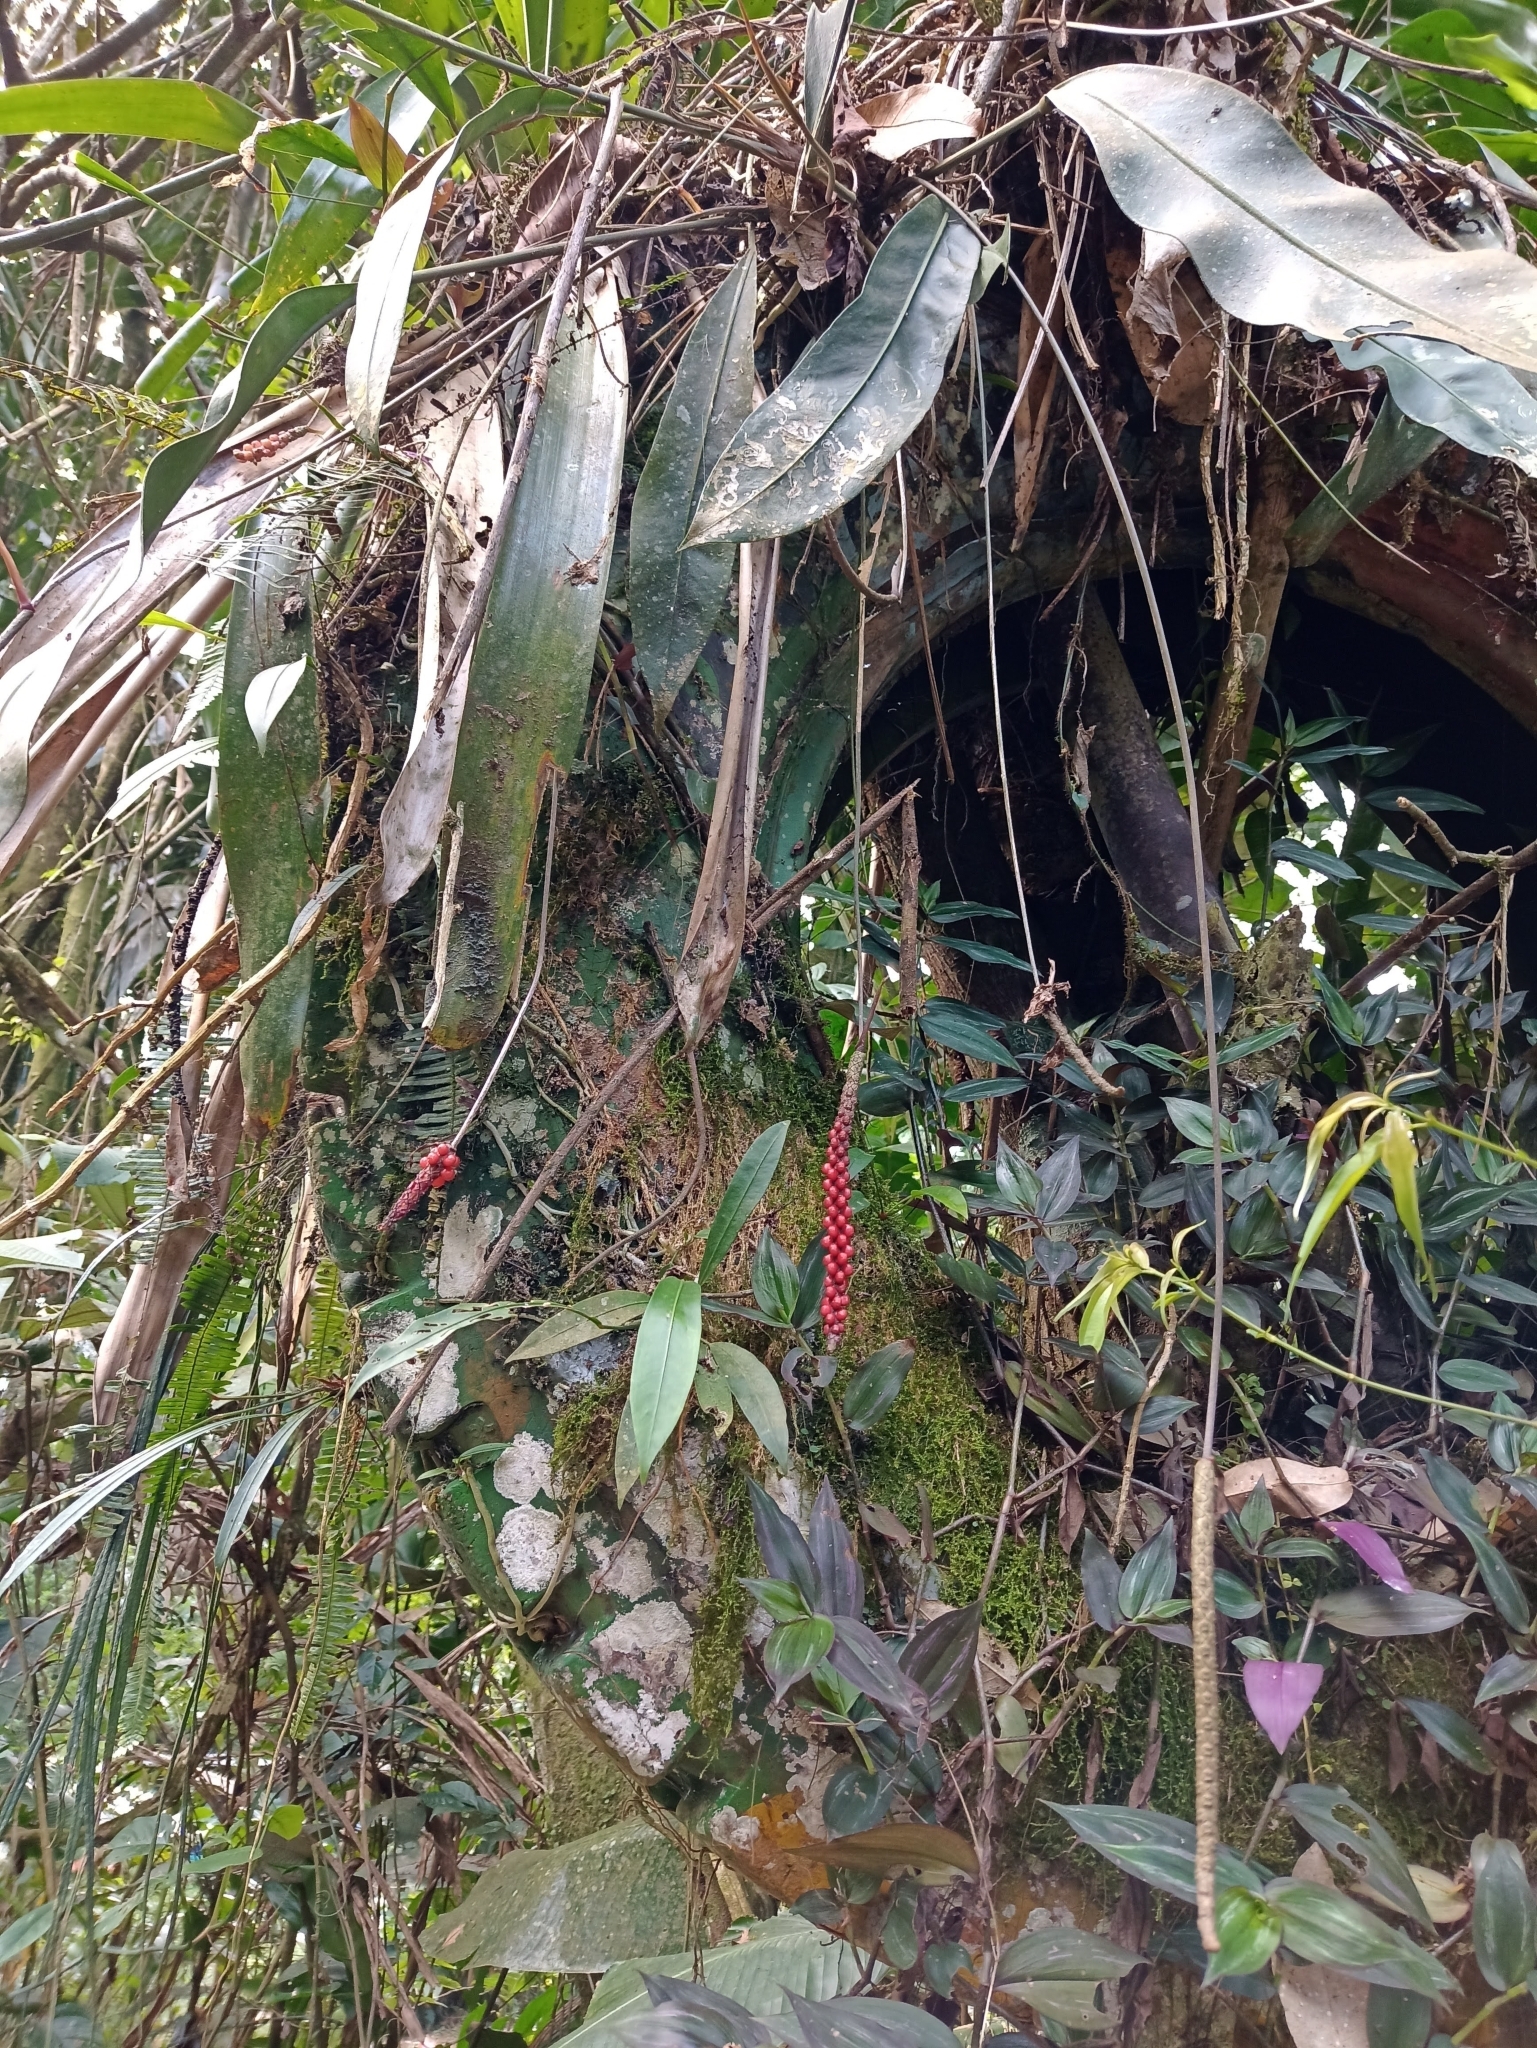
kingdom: Plantae
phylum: Tracheophyta
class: Liliopsida
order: Alismatales
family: Araceae
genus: Anthurium
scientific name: Anthurium gracile
